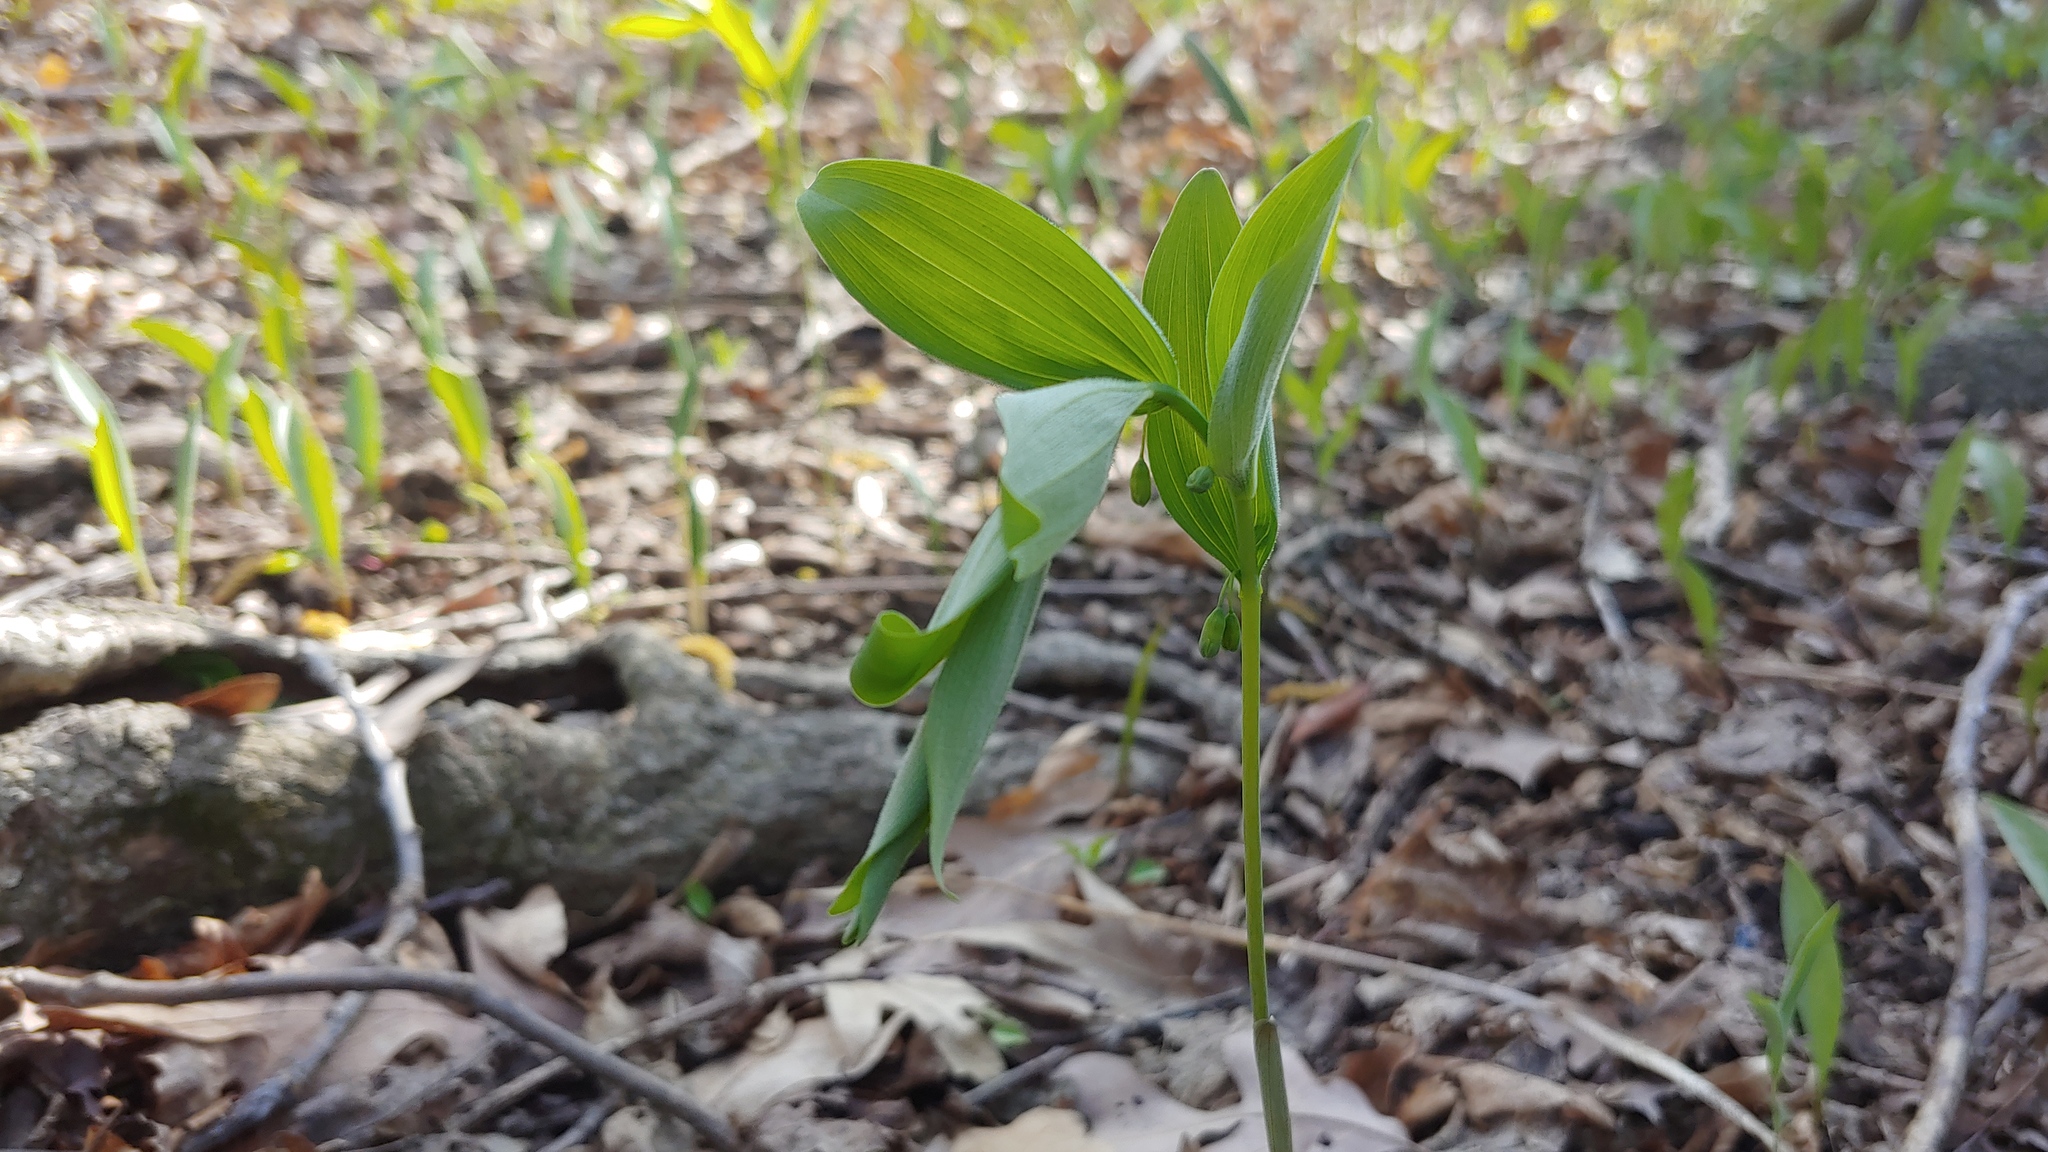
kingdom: Plantae
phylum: Tracheophyta
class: Liliopsida
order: Asparagales
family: Asparagaceae
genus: Polygonatum
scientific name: Polygonatum pubescens
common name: Downy solomon's seal
